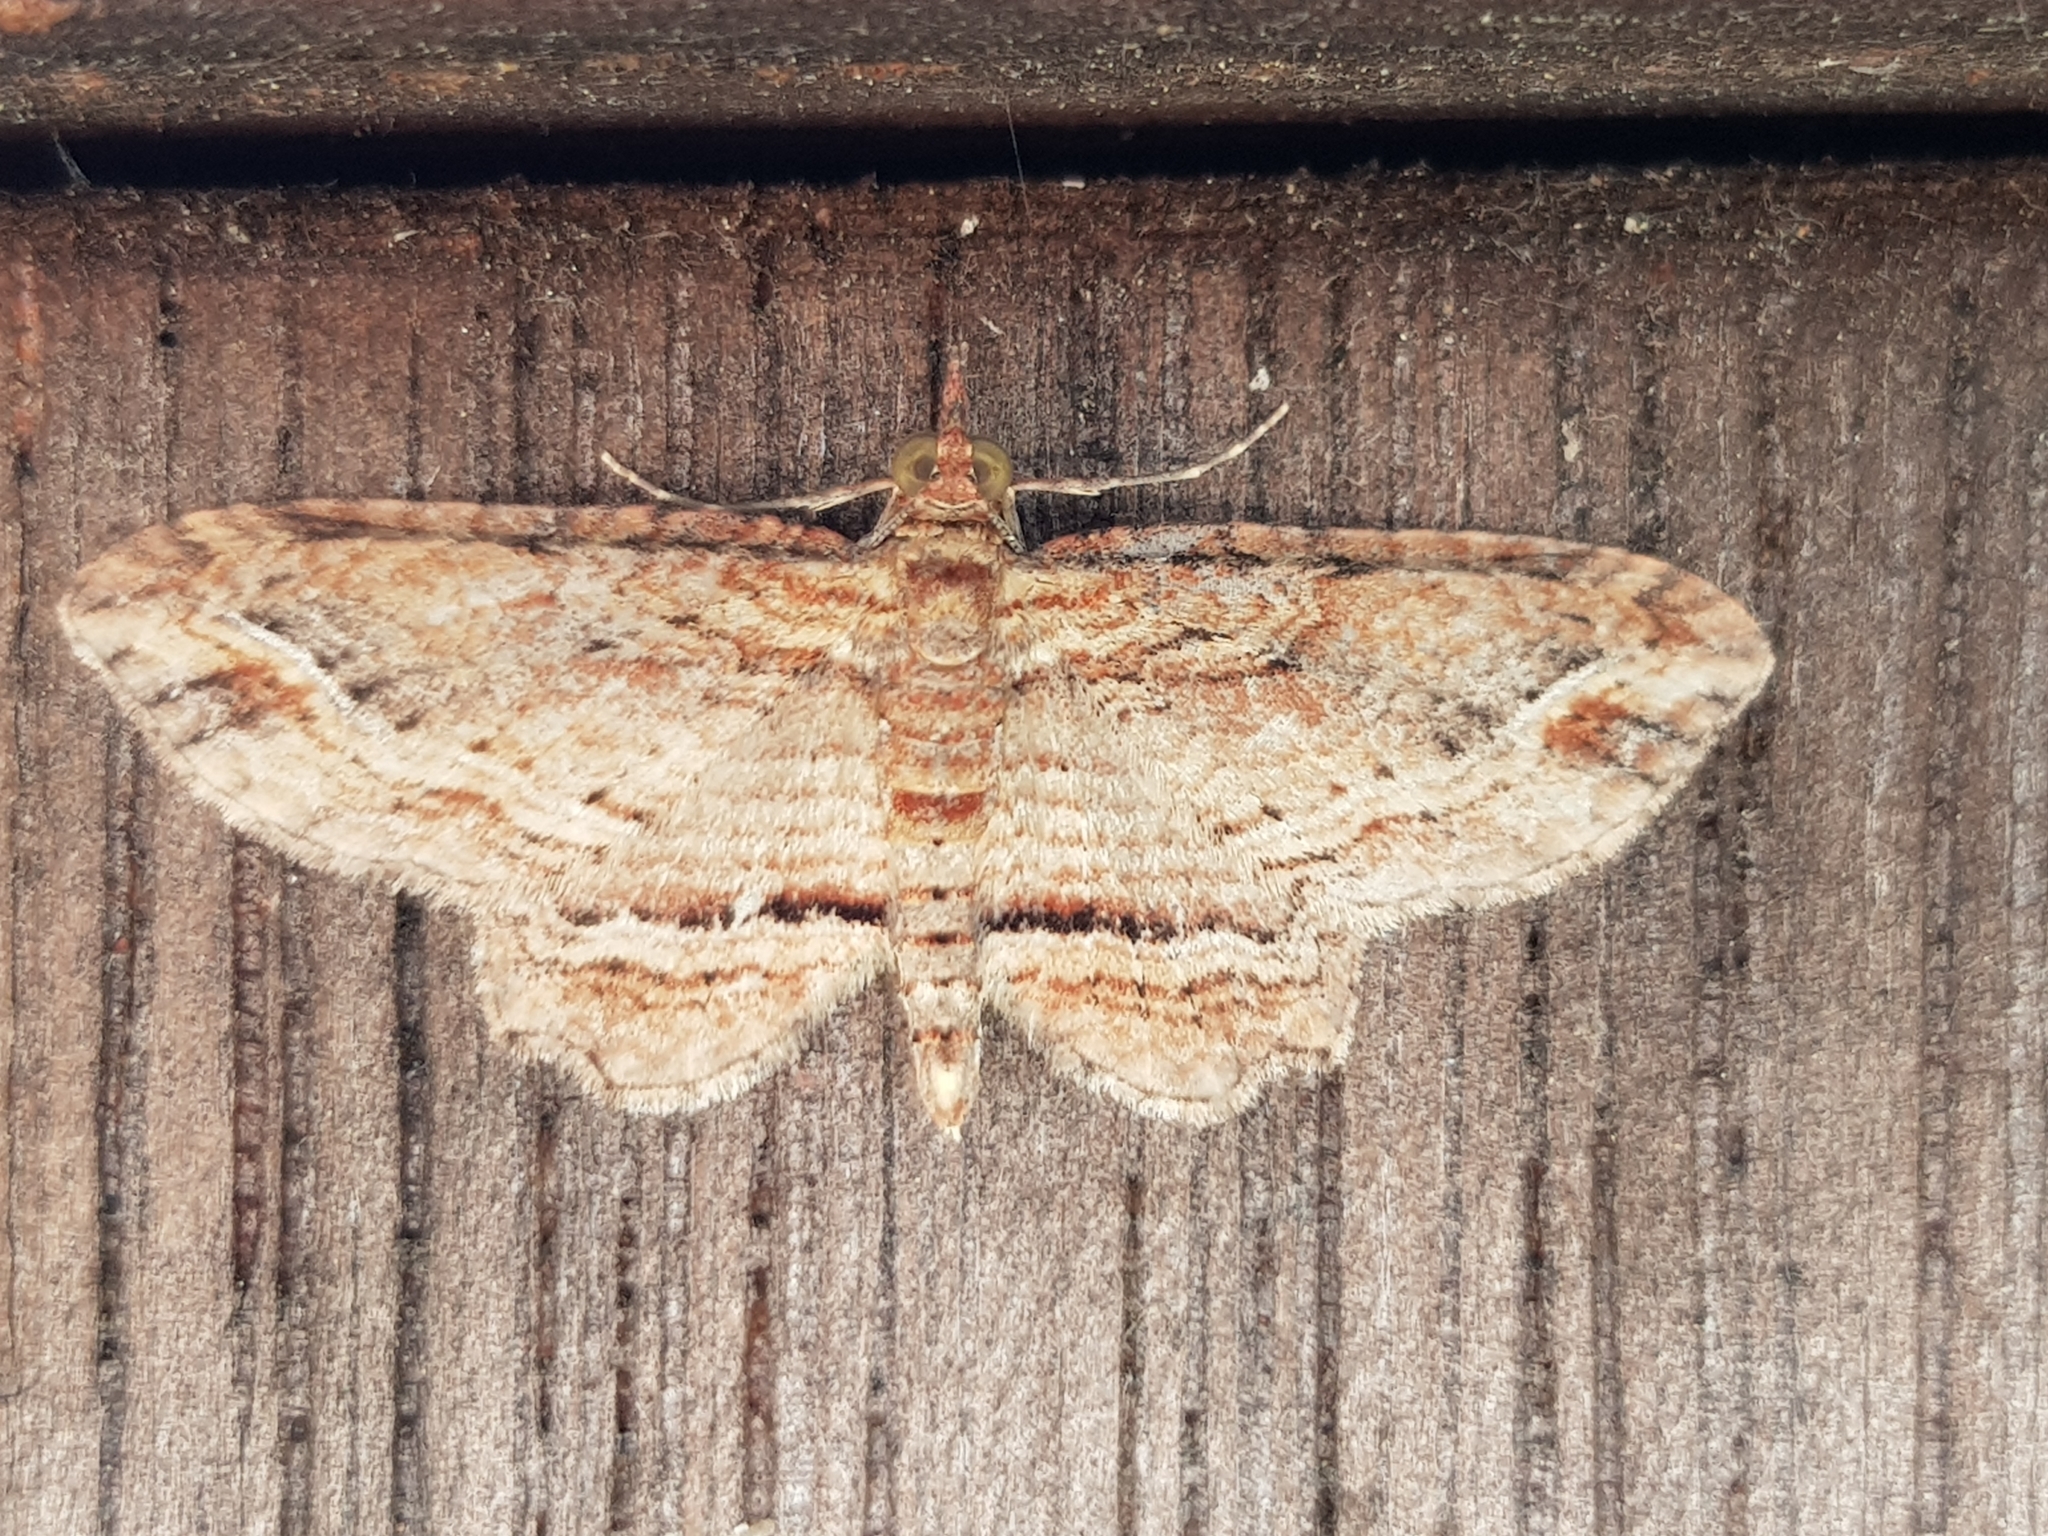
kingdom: Animalia
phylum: Arthropoda
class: Insecta
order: Lepidoptera
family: Geometridae
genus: Chloroclystis
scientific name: Chloroclystis filata
